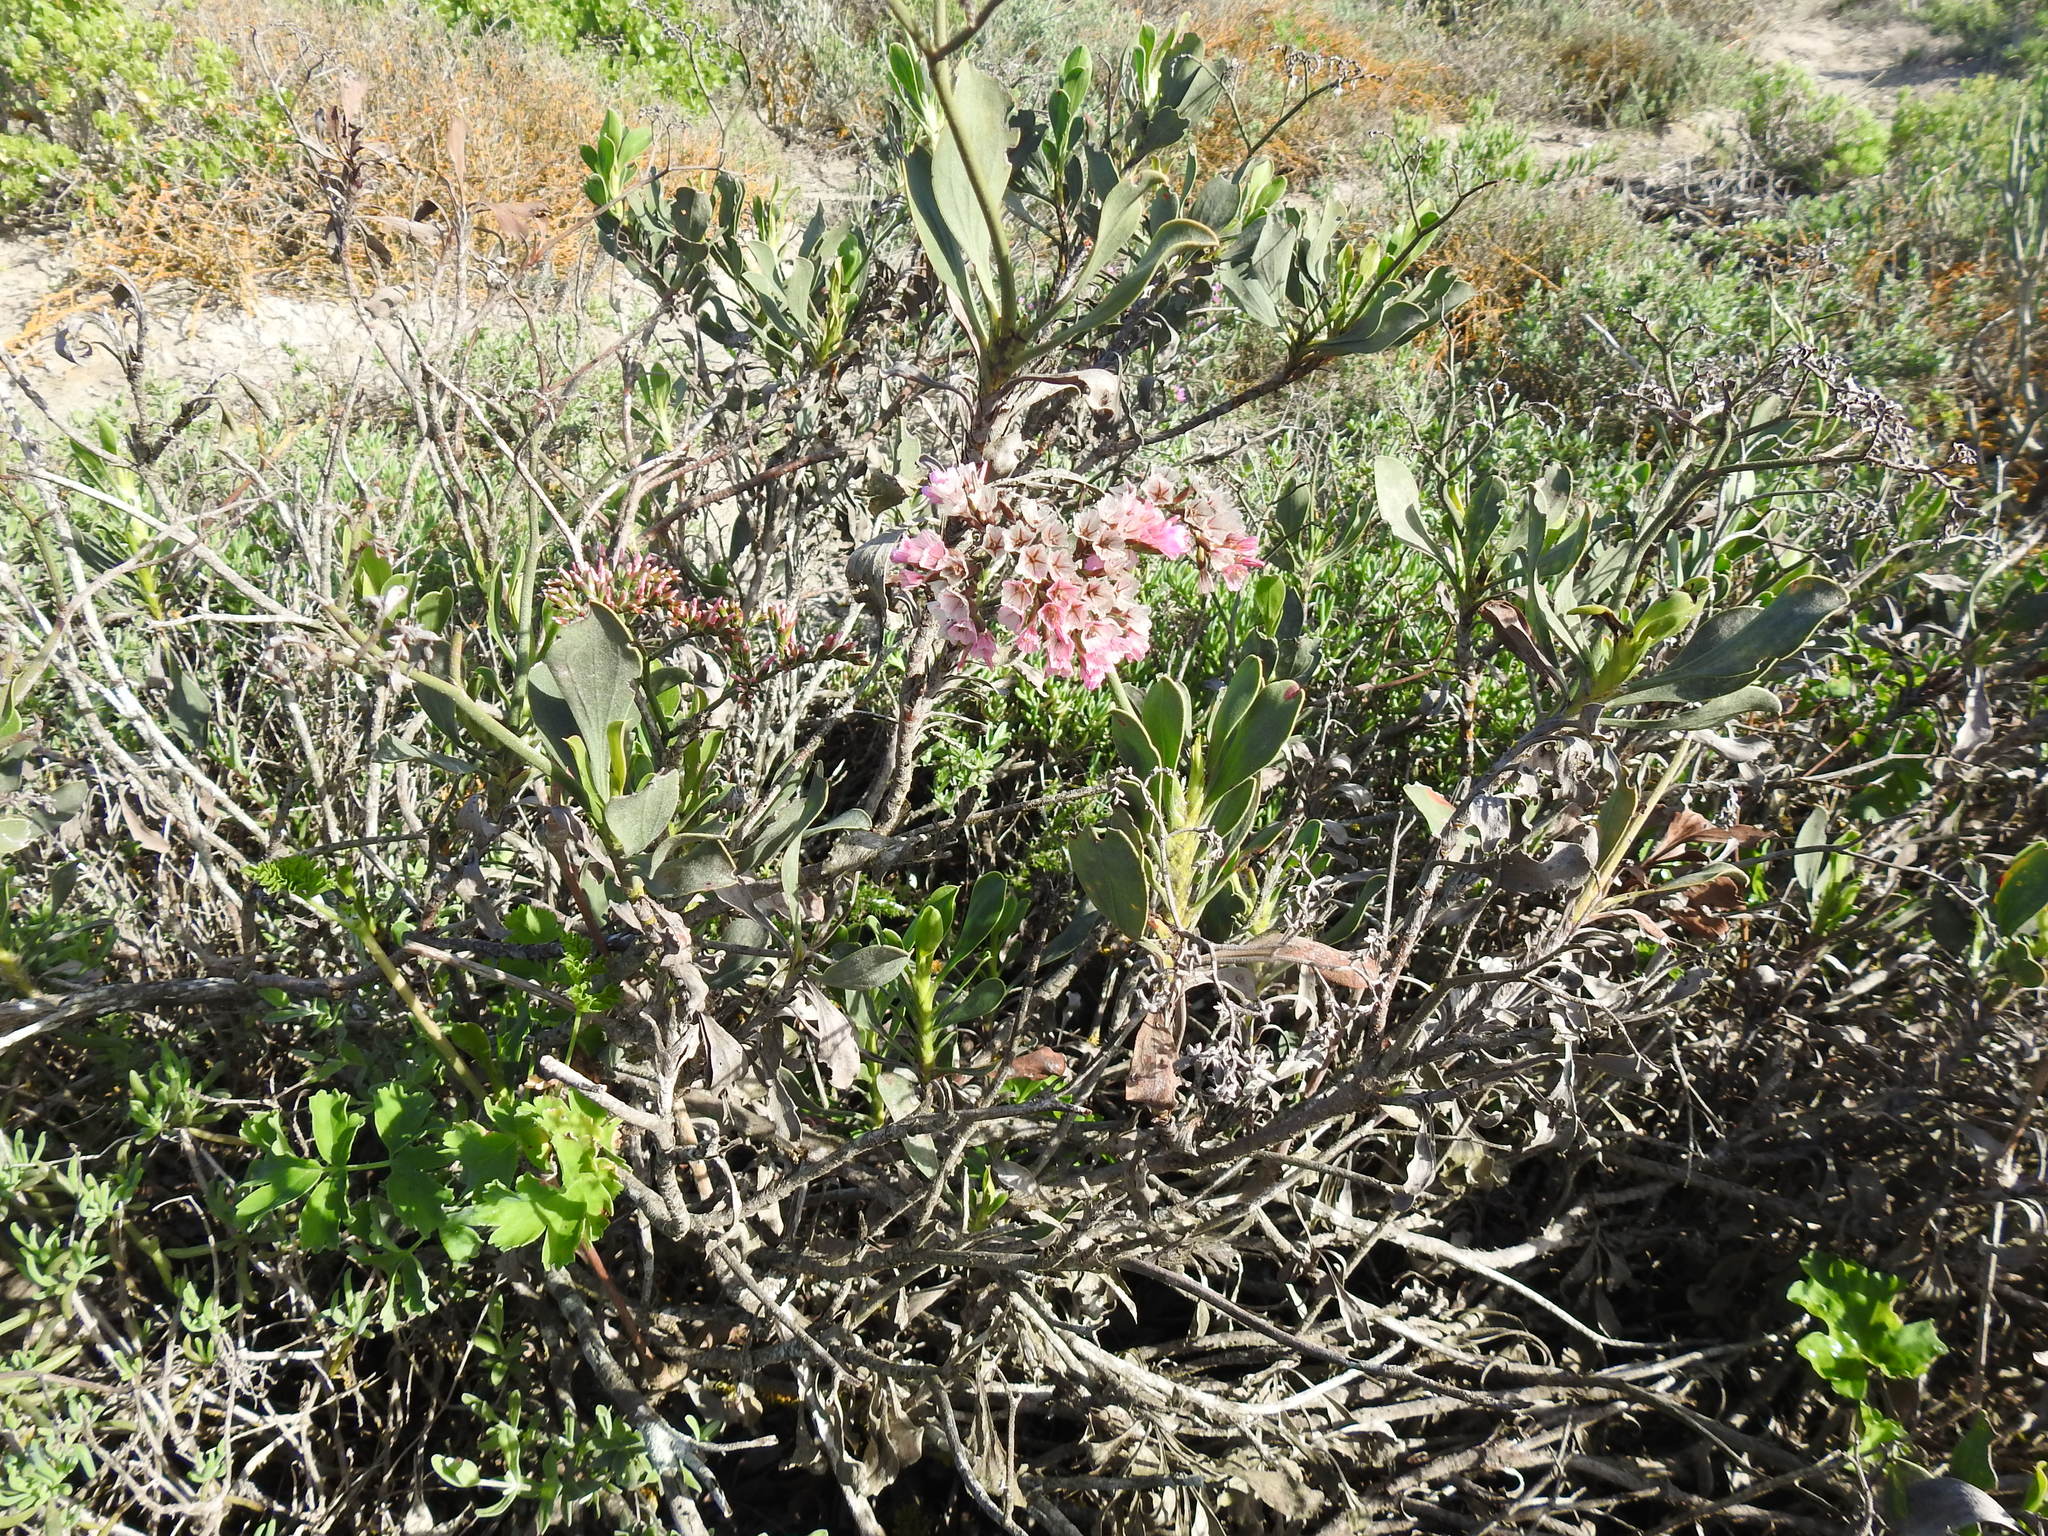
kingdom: Plantae
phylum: Tracheophyta
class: Magnoliopsida
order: Caryophyllales
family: Plumbaginaceae
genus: Limonium
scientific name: Limonium peregrinum
